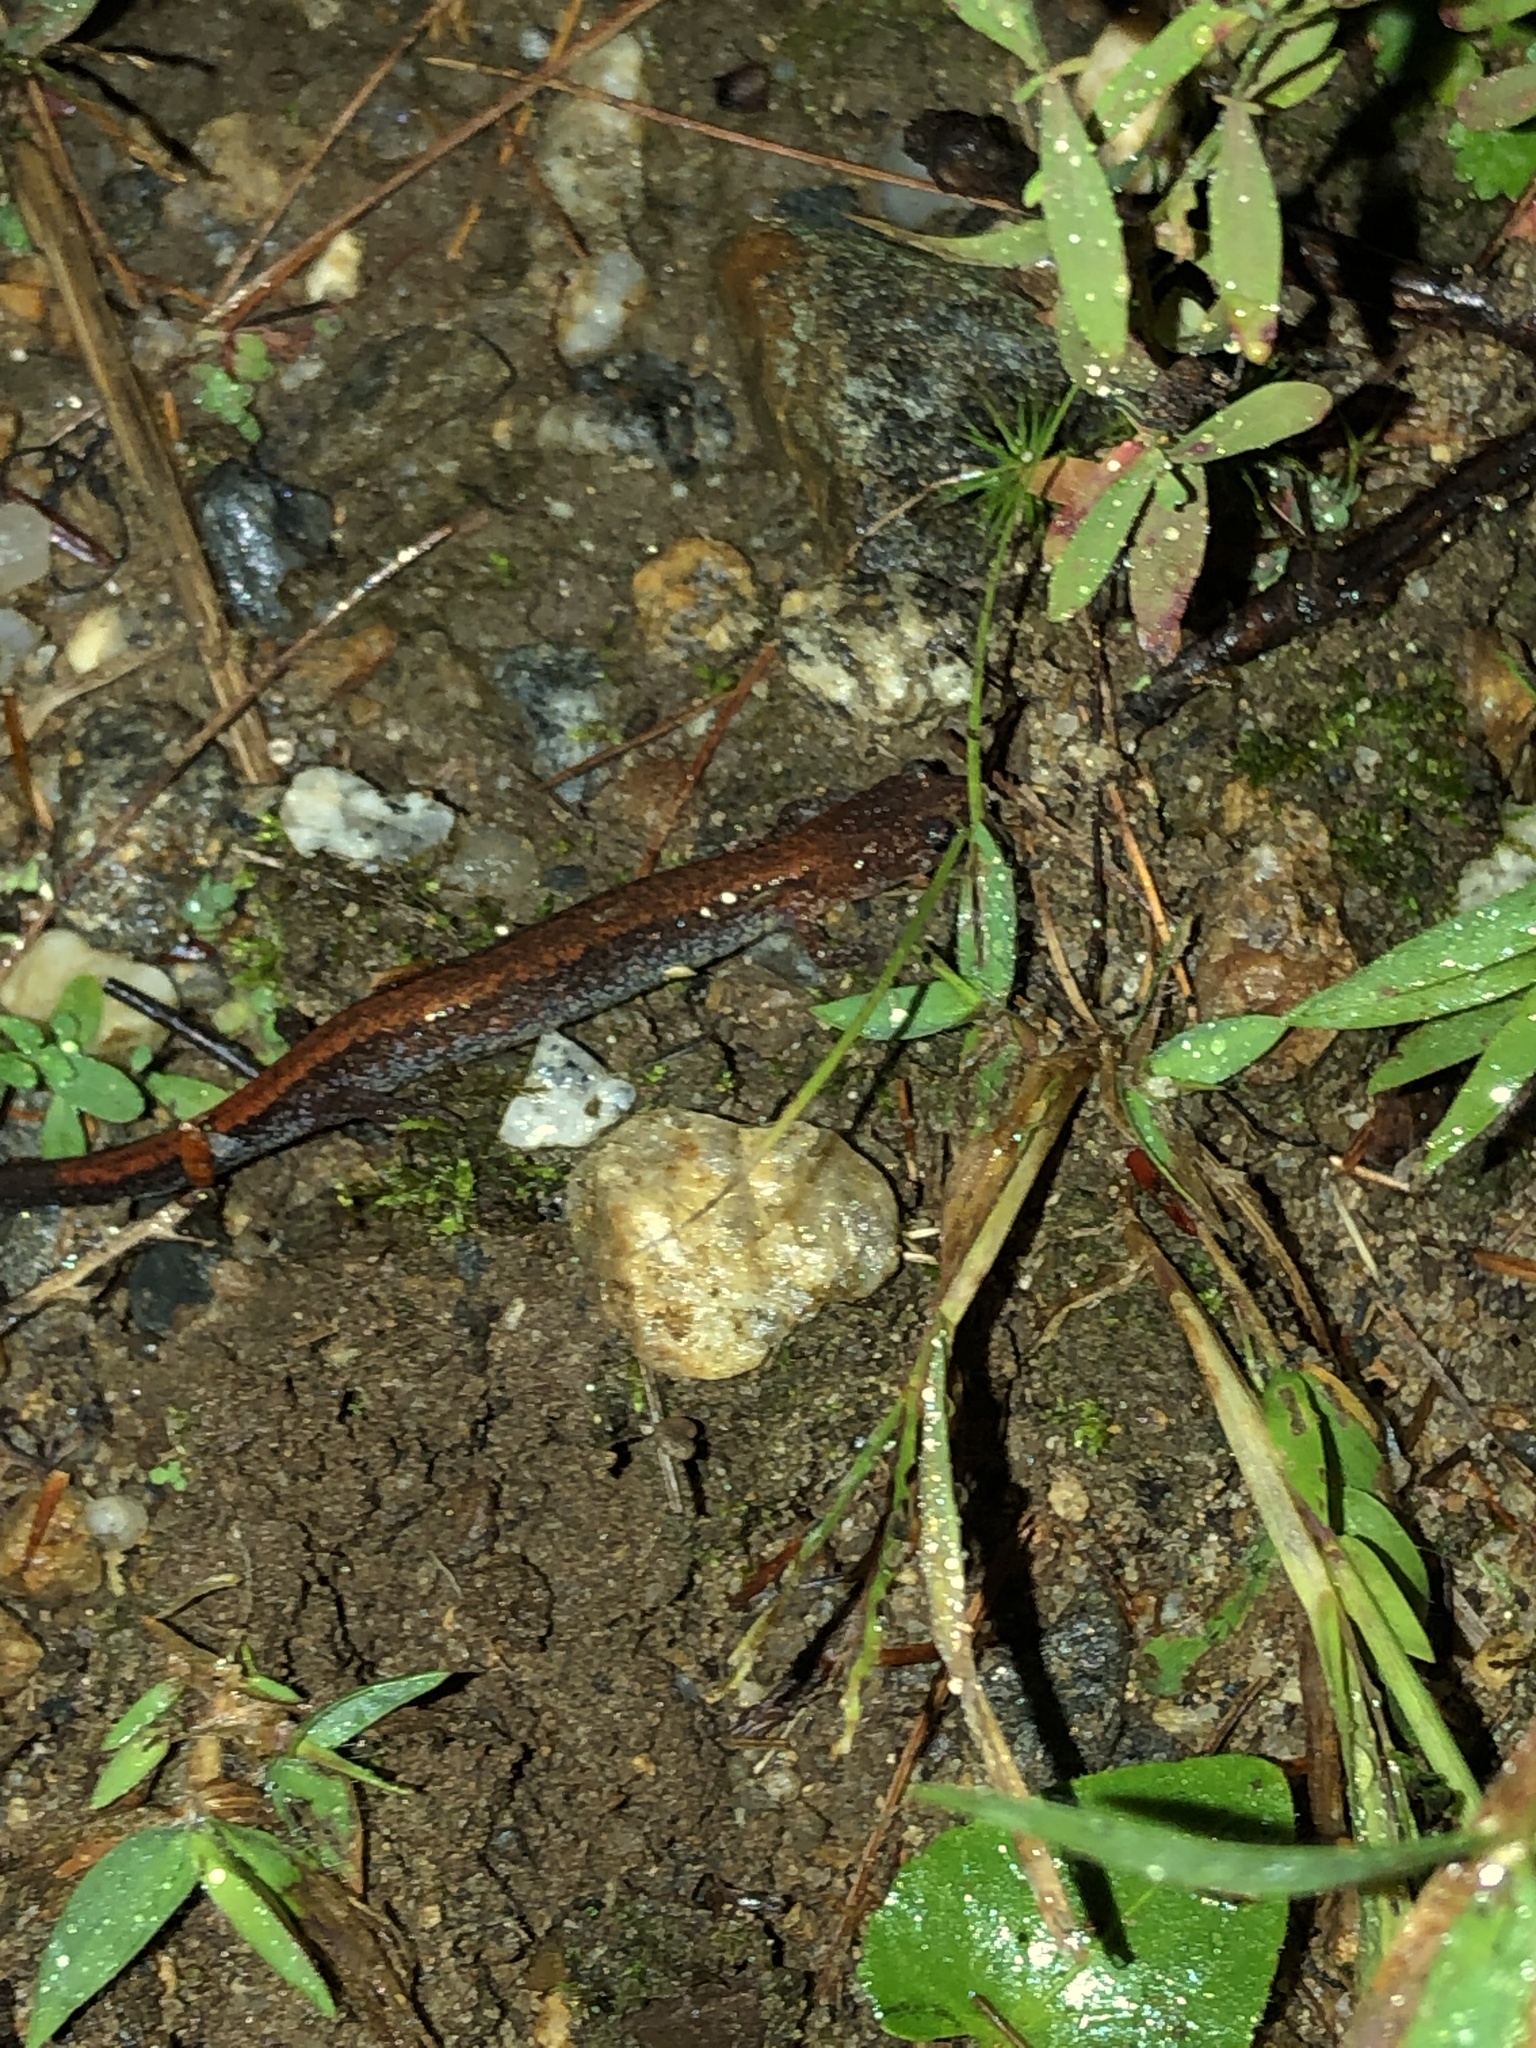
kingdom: Animalia
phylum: Chordata
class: Amphibia
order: Caudata
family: Plethodontidae
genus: Plethodon
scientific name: Plethodon cinereus
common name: Redback salamander
